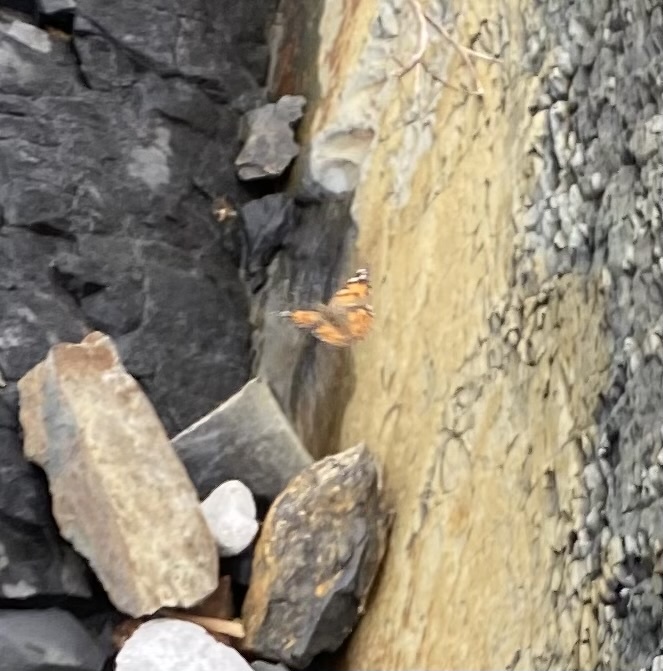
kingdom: Animalia
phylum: Arthropoda
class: Insecta
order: Lepidoptera
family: Nymphalidae
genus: Vanessa
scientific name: Vanessa cardui
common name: Painted lady
